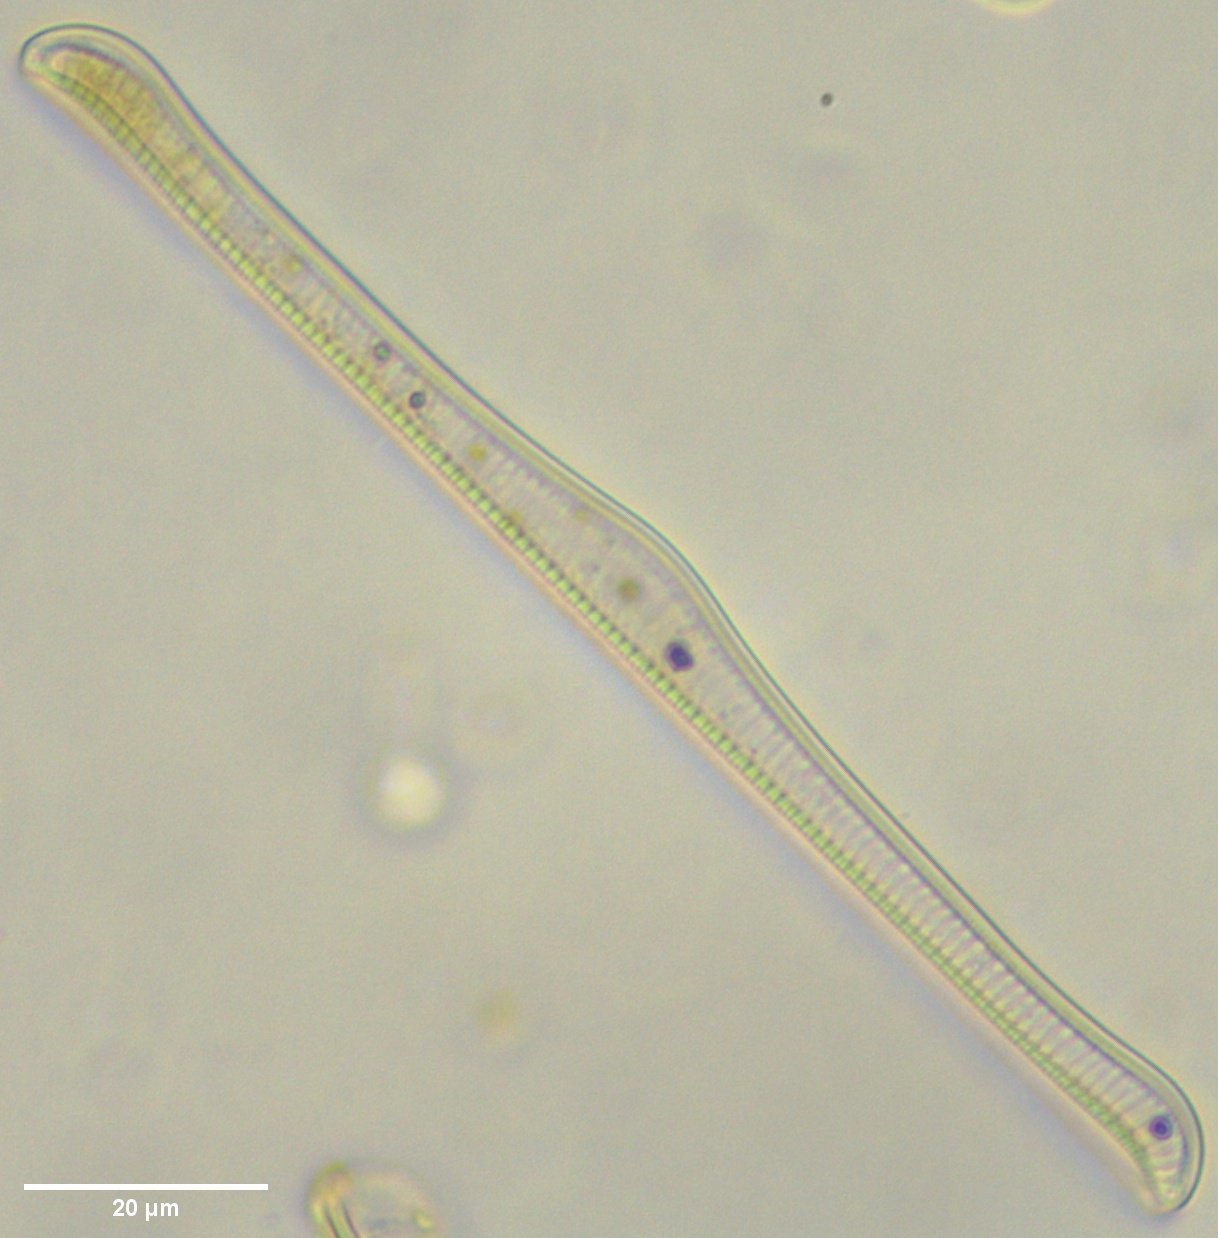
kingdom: Chromista
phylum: Ochrophyta
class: Bacillariophyceae
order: Rhopalodiales
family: Rhopalodiaceae
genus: Epithemia
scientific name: Epithemia gibba
